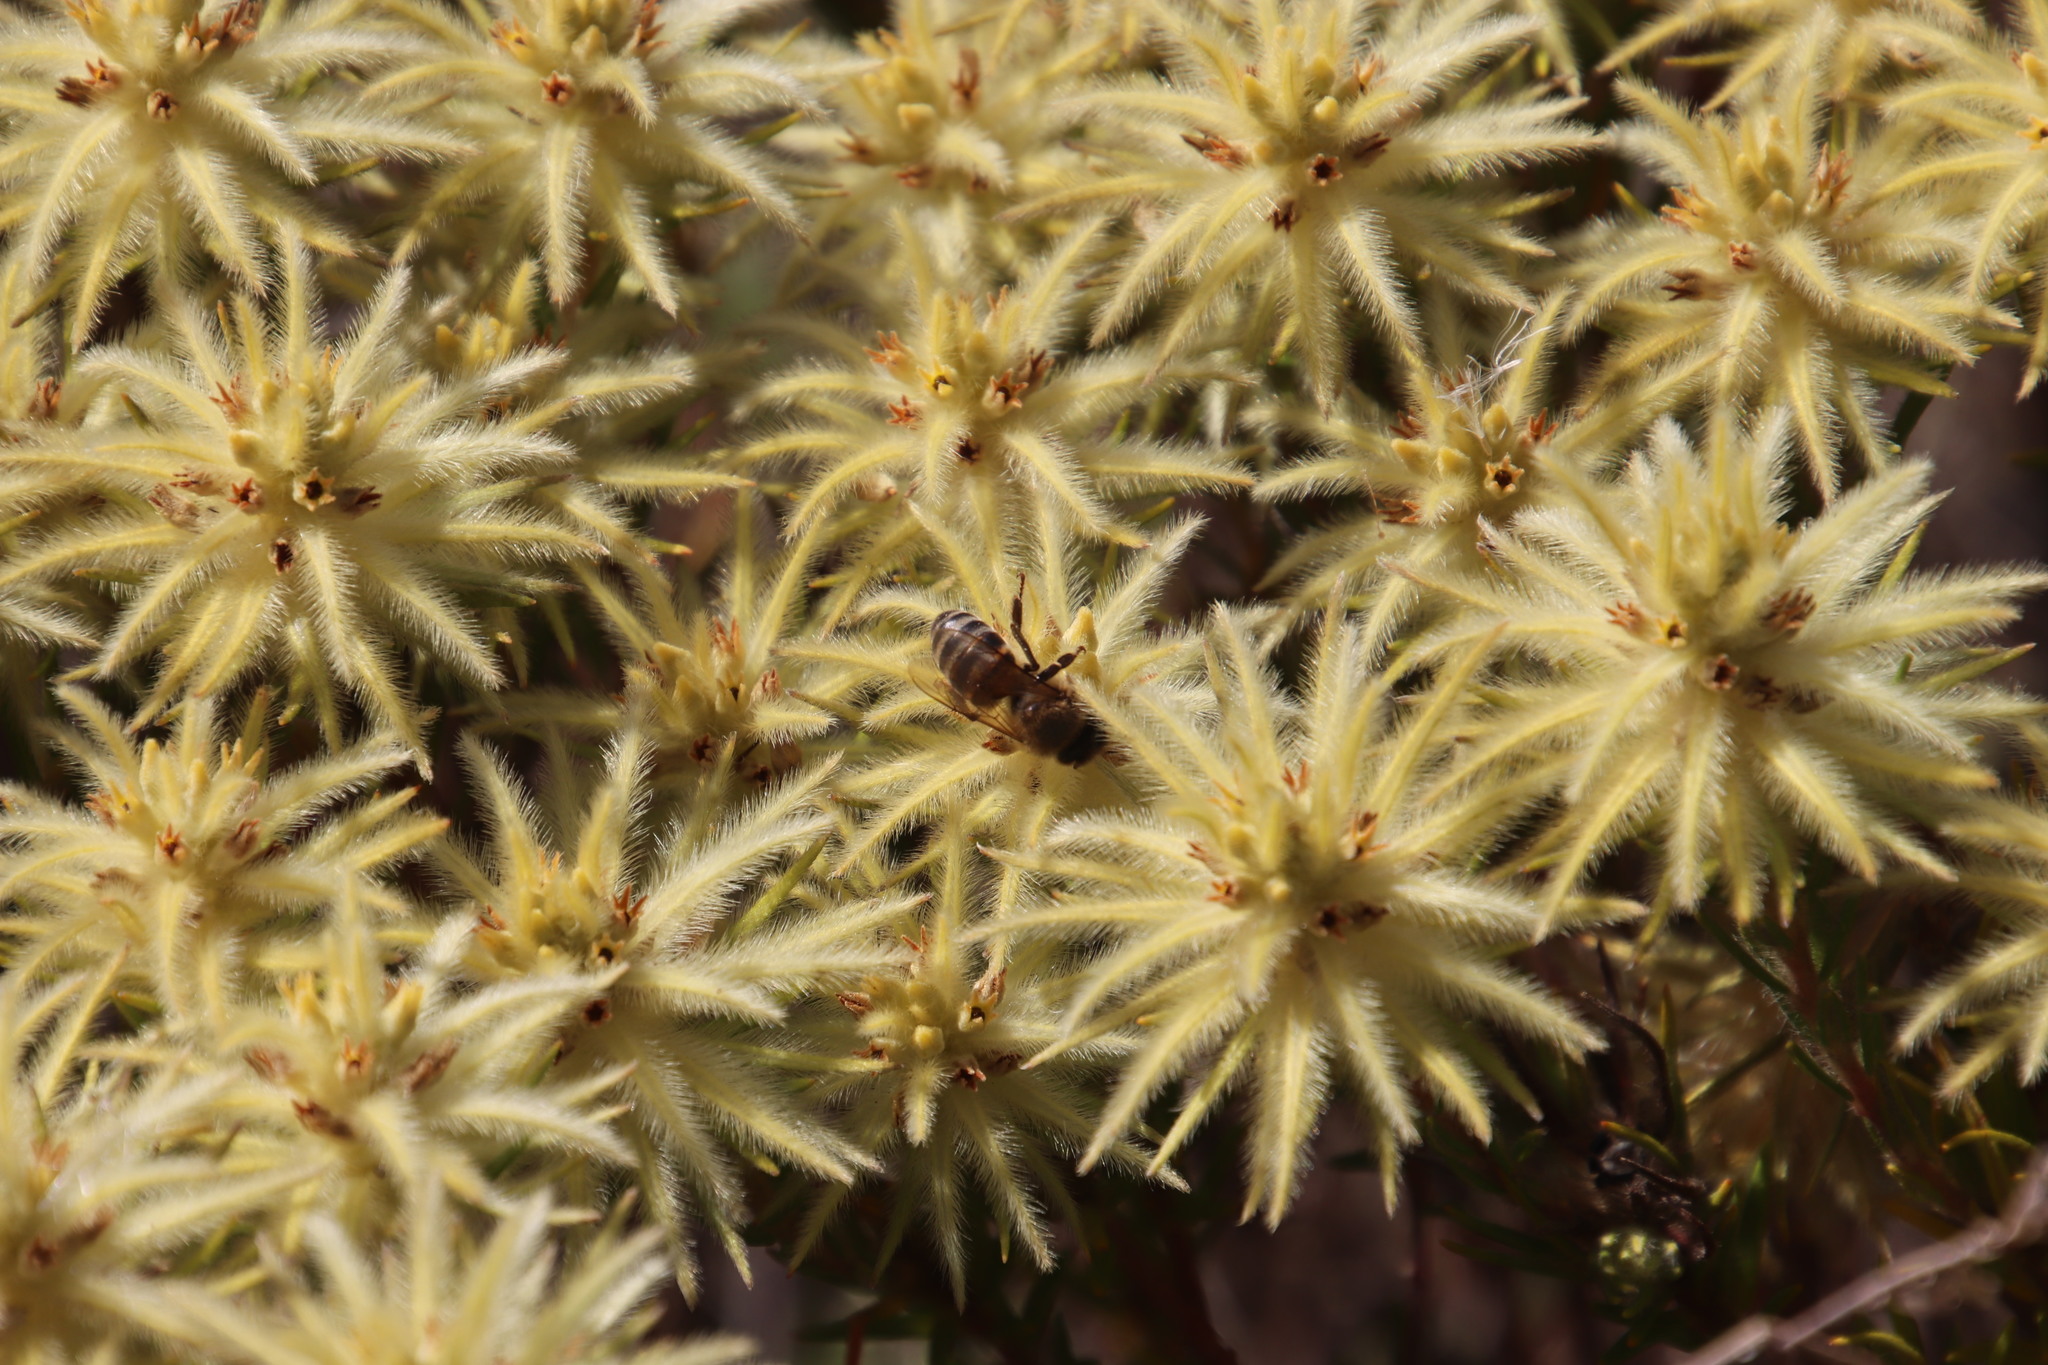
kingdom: Plantae
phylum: Tracheophyta
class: Magnoliopsida
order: Rosales
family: Rhamnaceae
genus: Phylica
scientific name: Phylica pubescens
